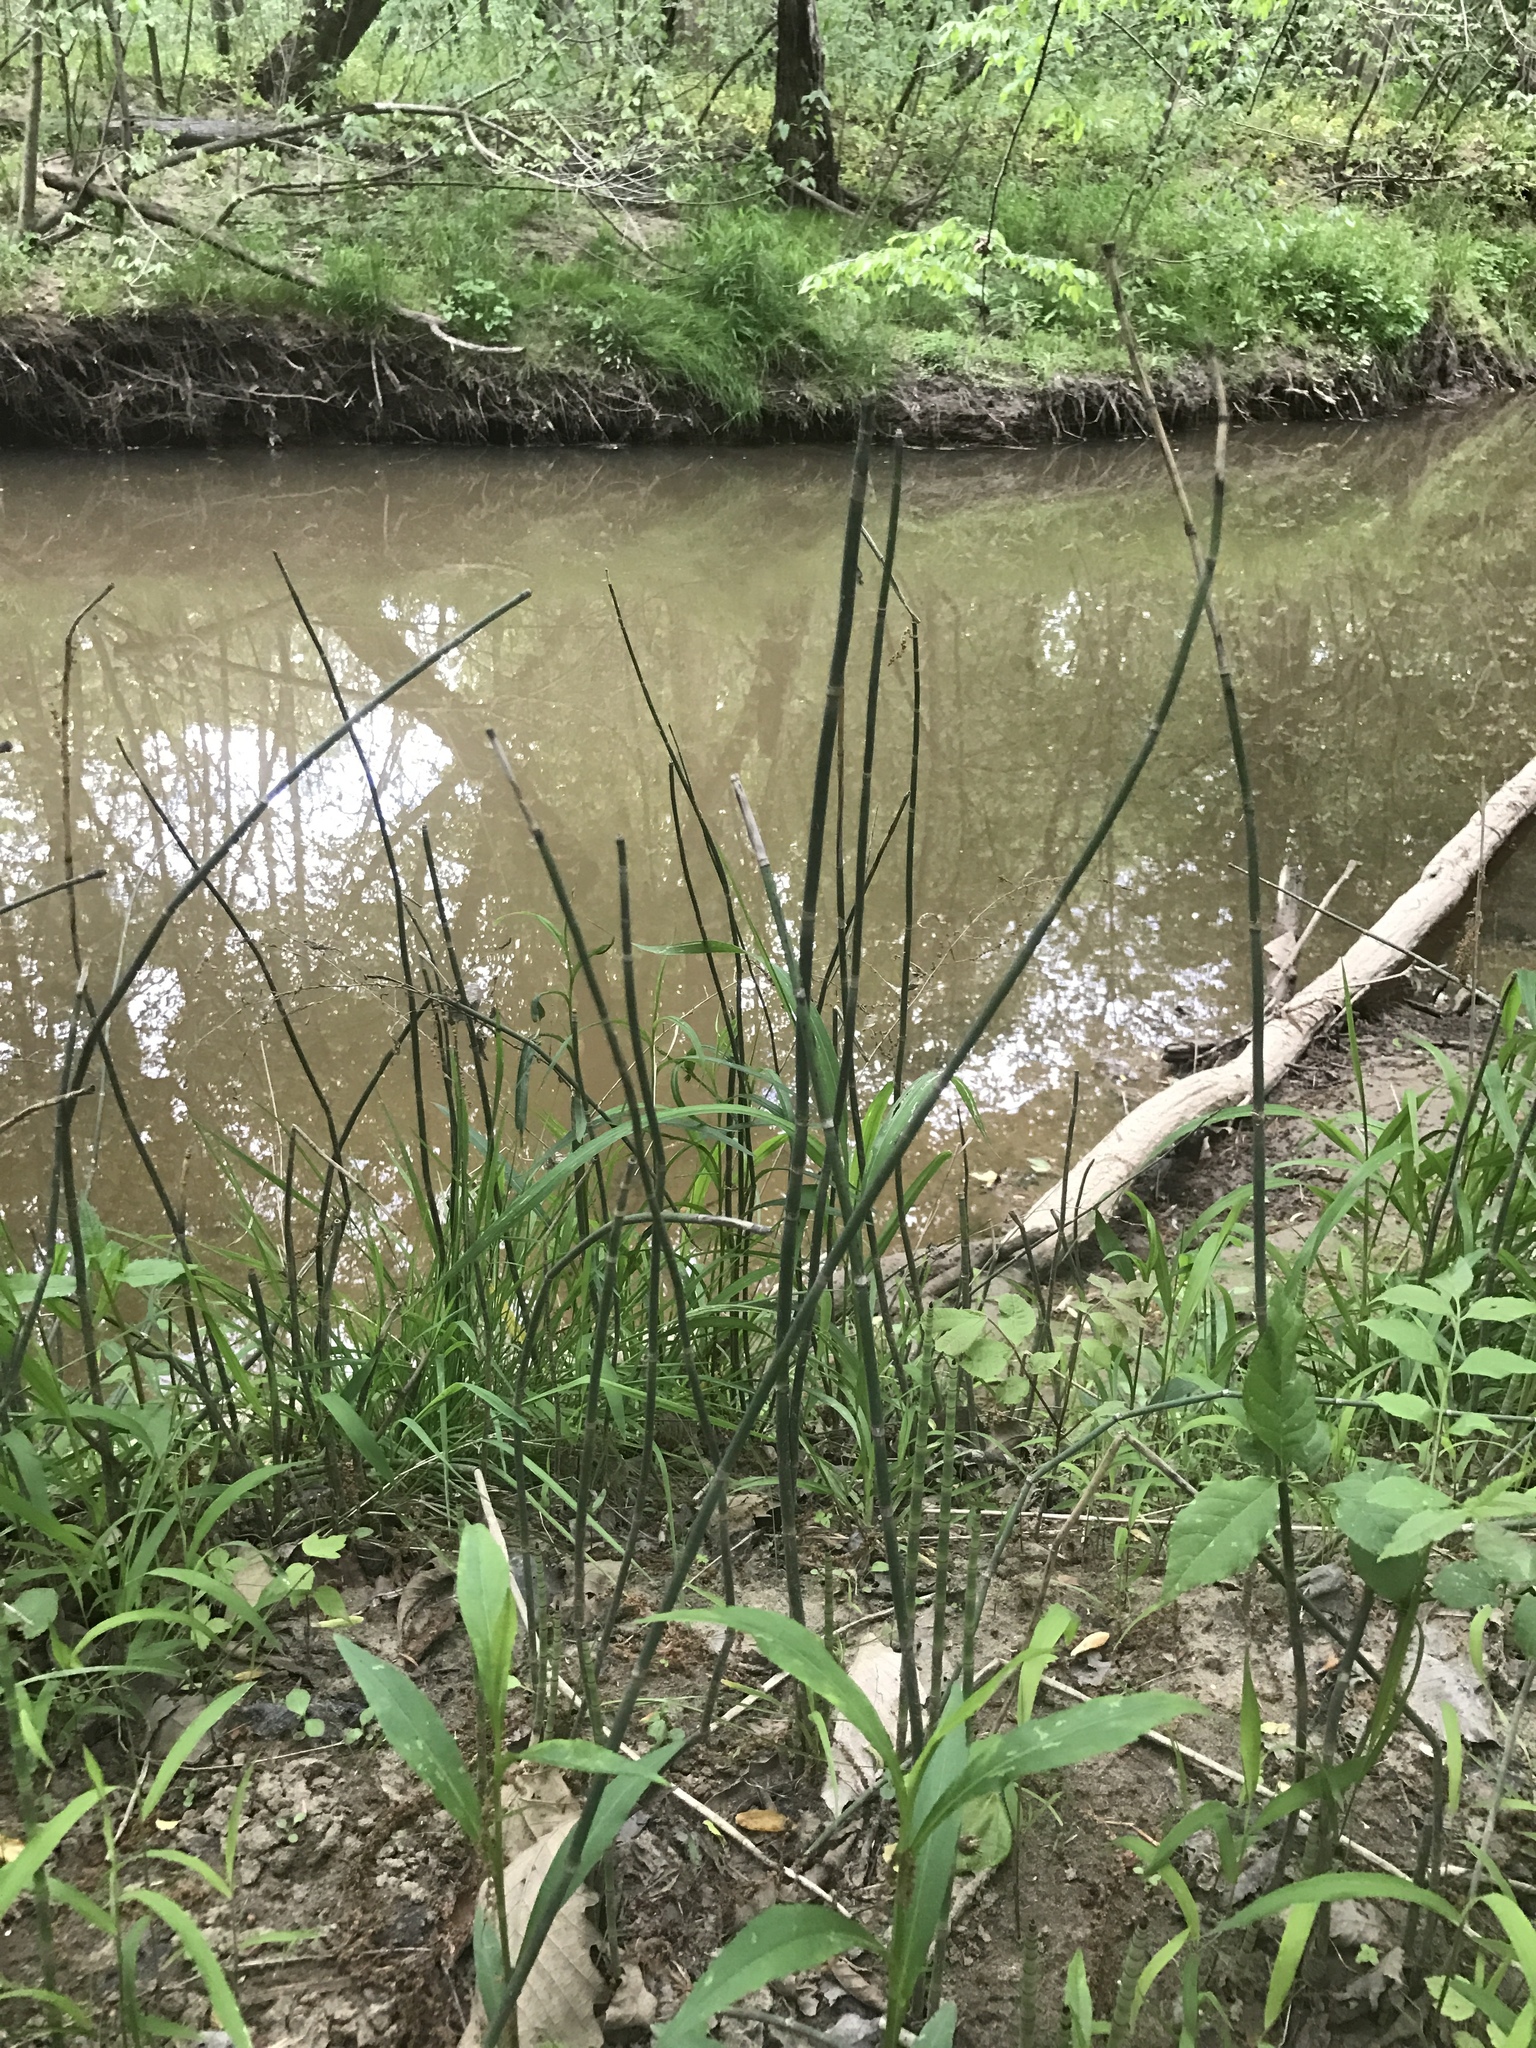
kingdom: Plantae
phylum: Tracheophyta
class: Polypodiopsida
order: Equisetales
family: Equisetaceae
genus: Equisetum
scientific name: Equisetum hyemale
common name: Rough horsetail
